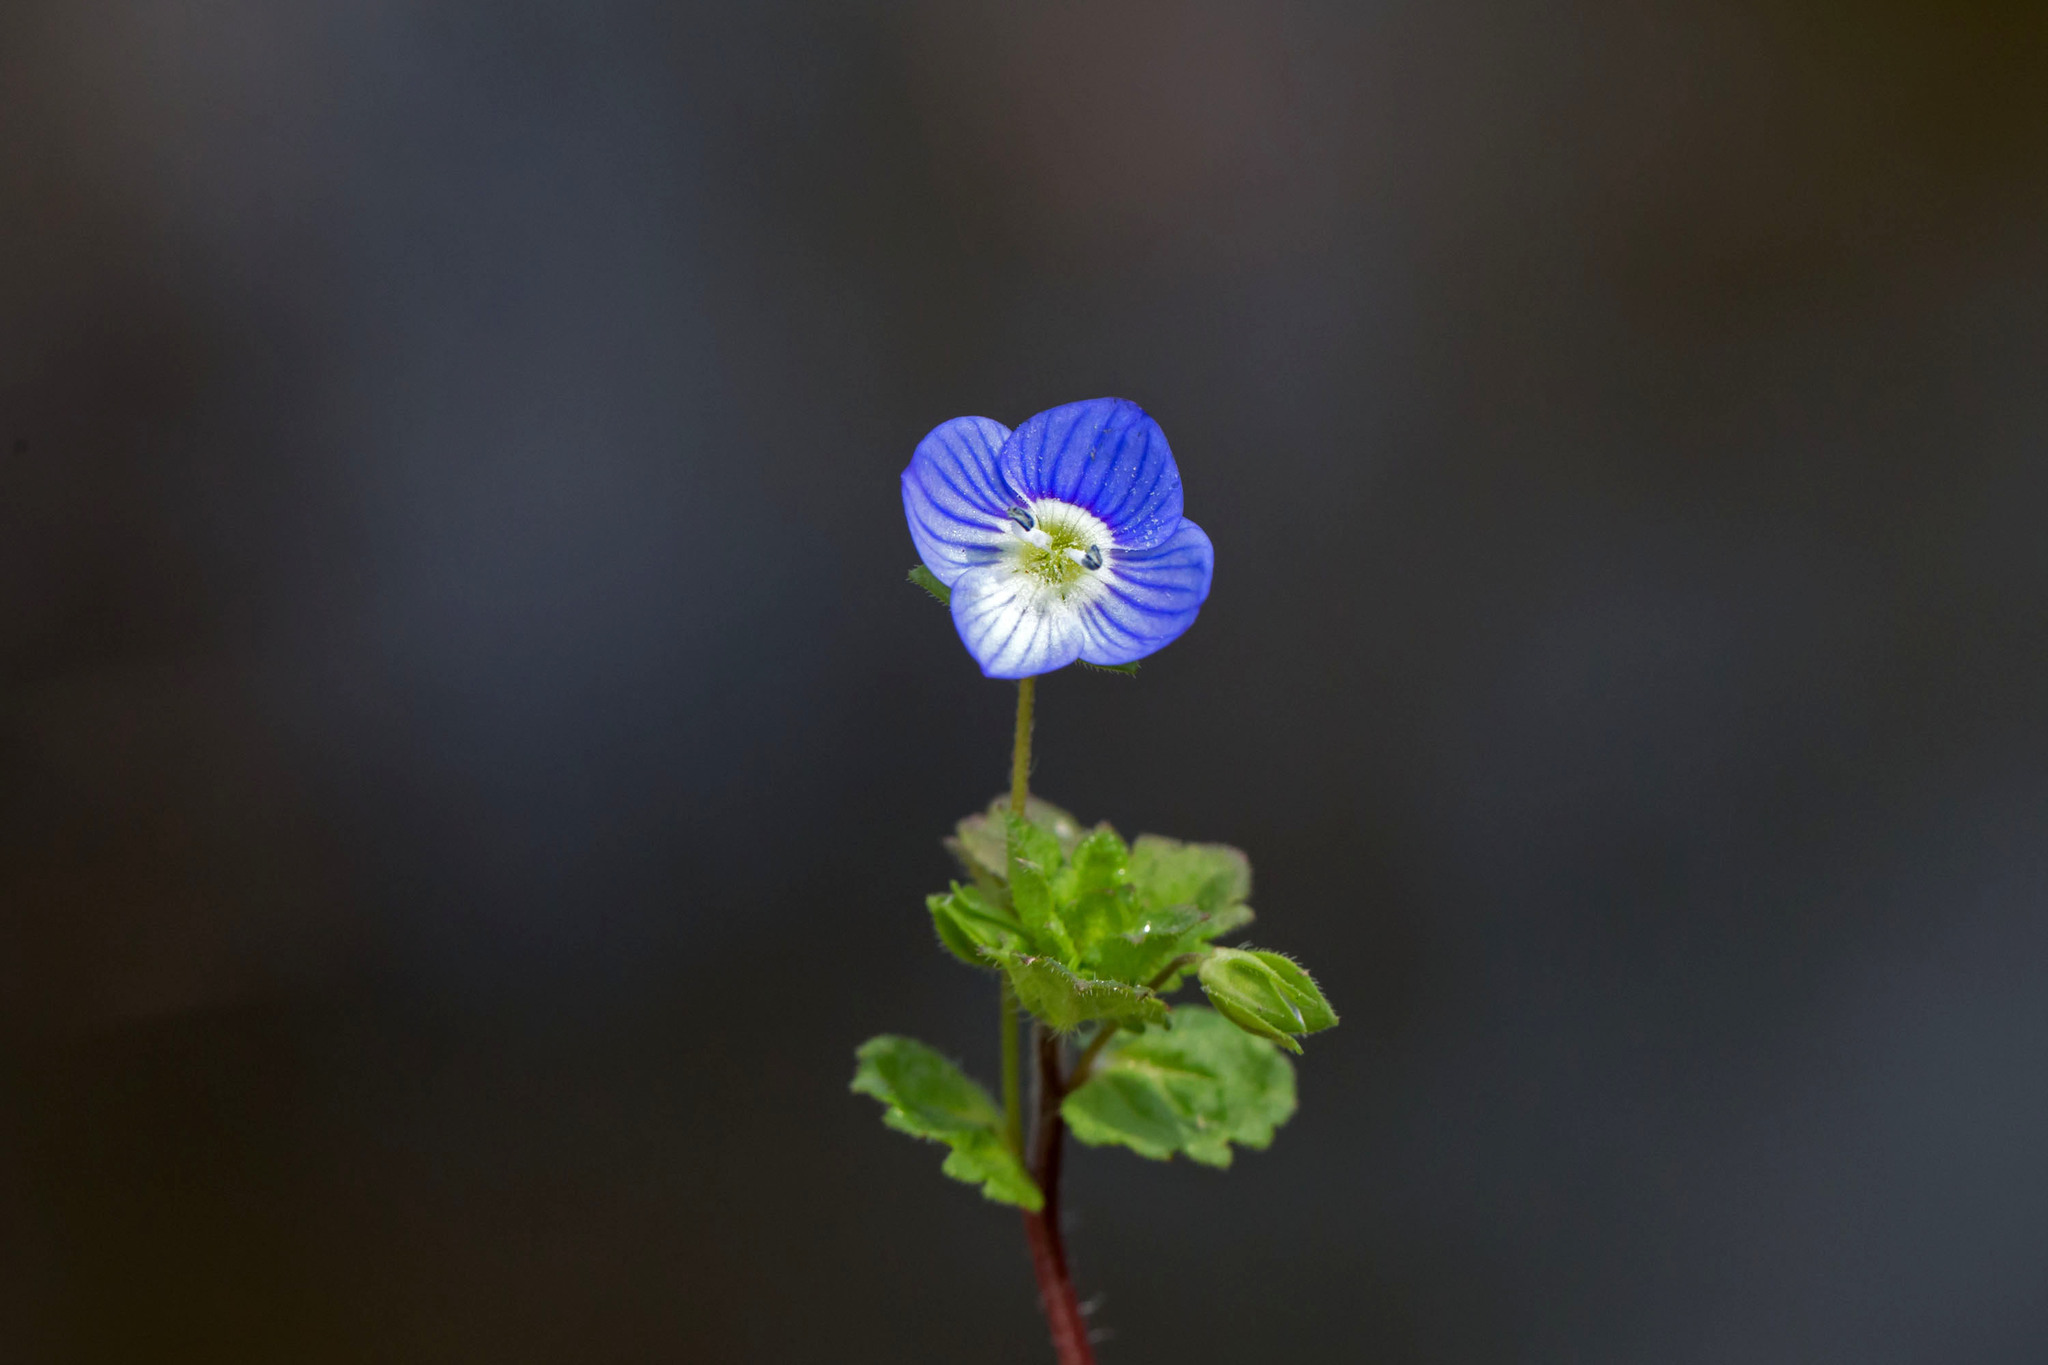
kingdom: Plantae
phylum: Tracheophyta
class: Magnoliopsida
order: Lamiales
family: Plantaginaceae
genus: Veronica
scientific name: Veronica persica
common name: Common field-speedwell
